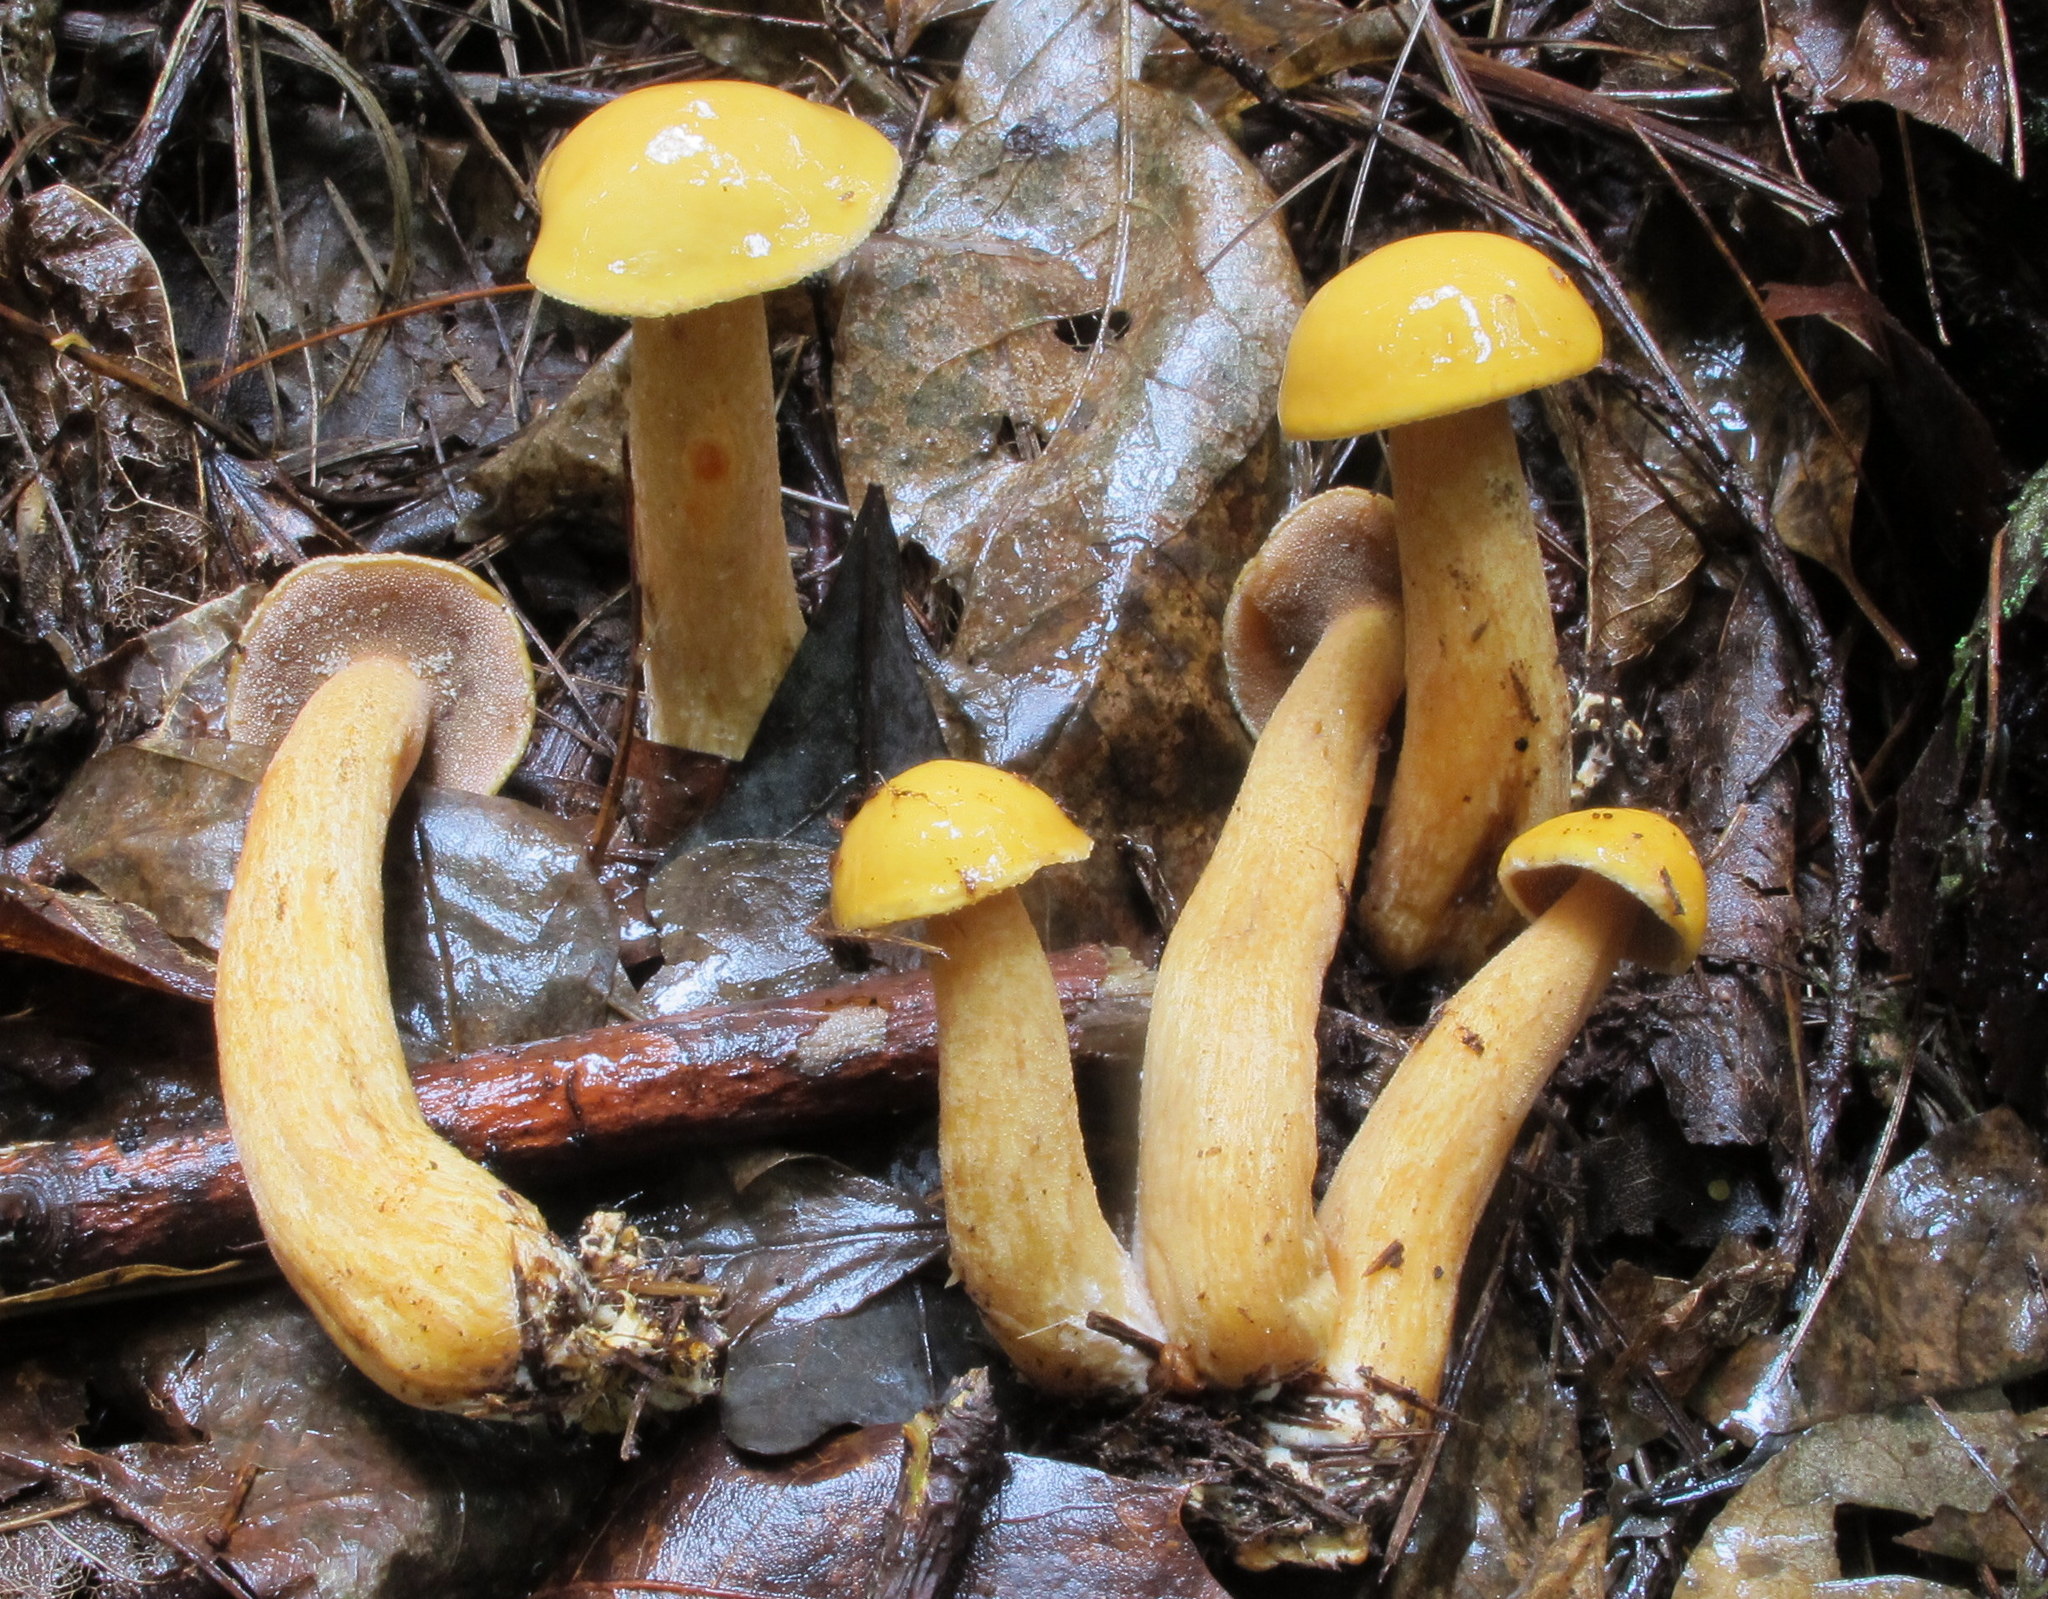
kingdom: Fungi
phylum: Basidiomycota
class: Agaricomycetes
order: Boletales
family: Suillaceae
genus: Suillus
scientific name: Suillus punctipes
